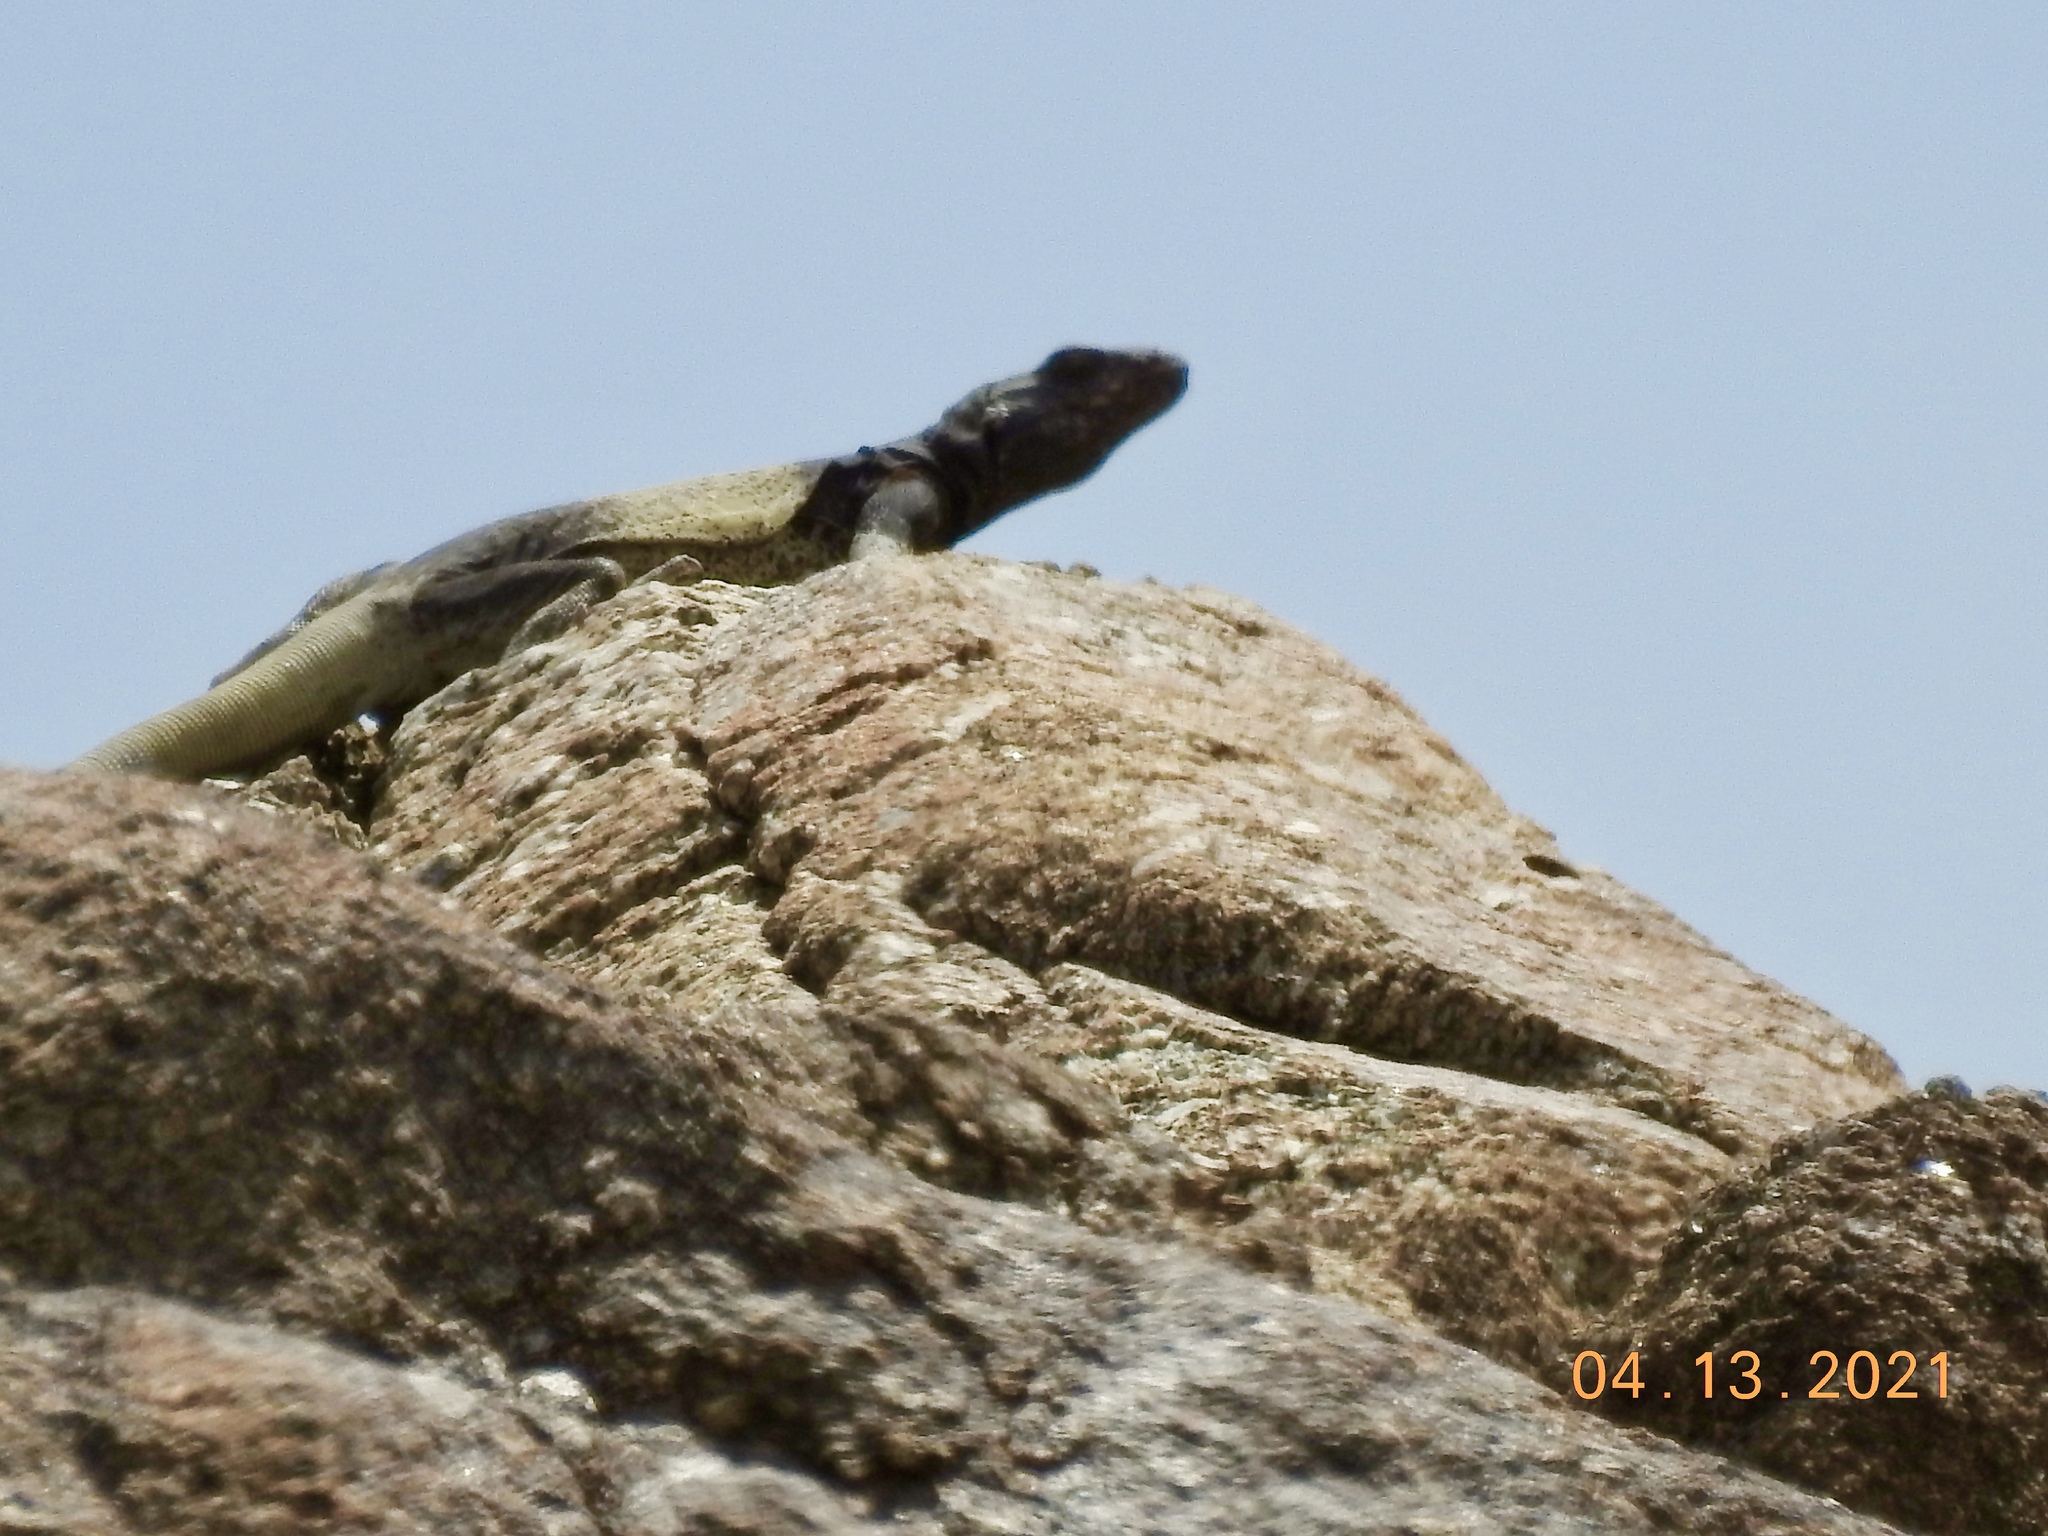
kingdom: Animalia
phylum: Chordata
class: Squamata
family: Iguanidae
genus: Sauromalus
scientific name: Sauromalus ater
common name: Northern chuckwalla
